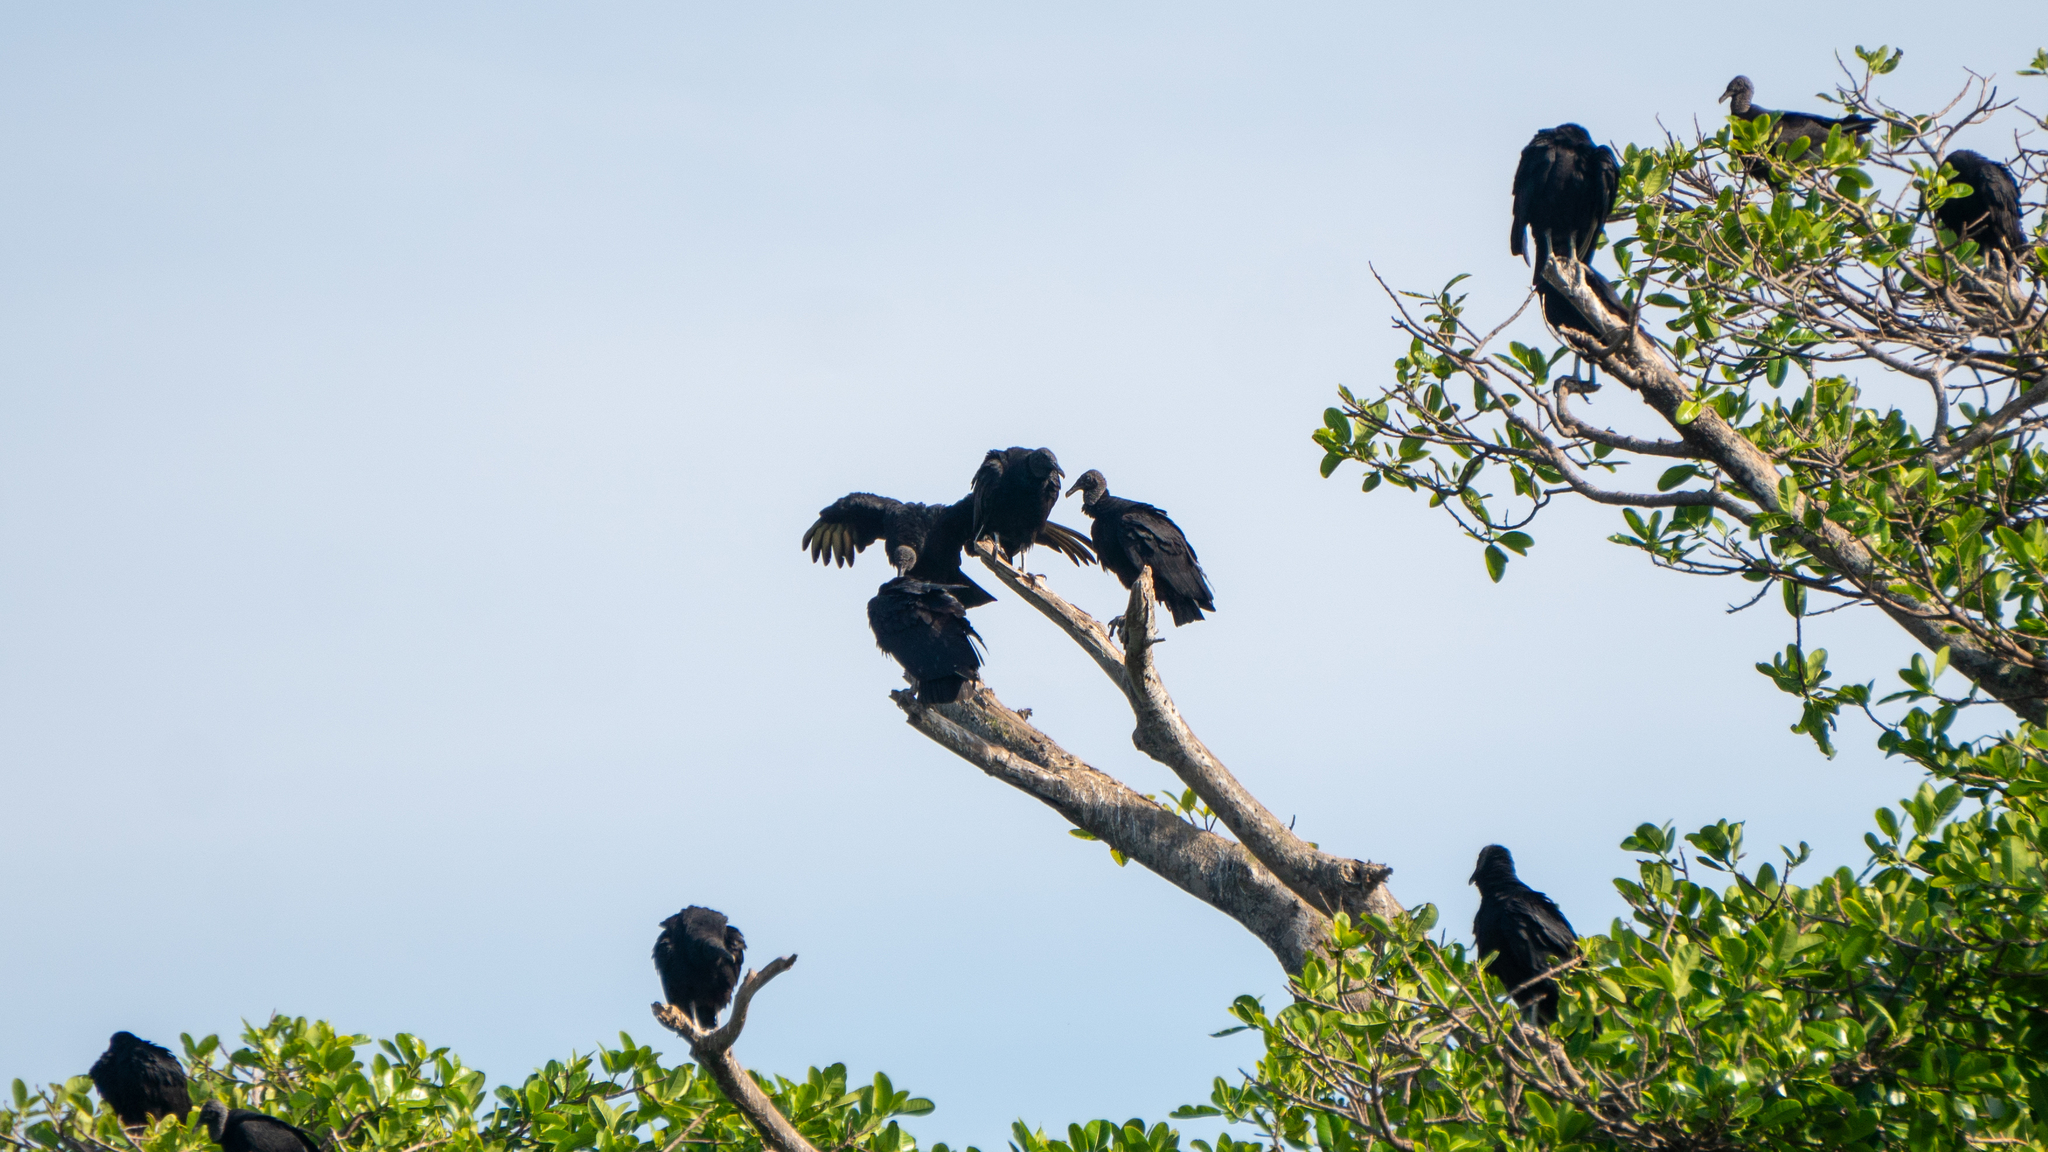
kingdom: Animalia
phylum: Chordata
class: Aves
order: Accipitriformes
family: Cathartidae
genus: Coragyps
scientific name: Coragyps atratus
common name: Black vulture
